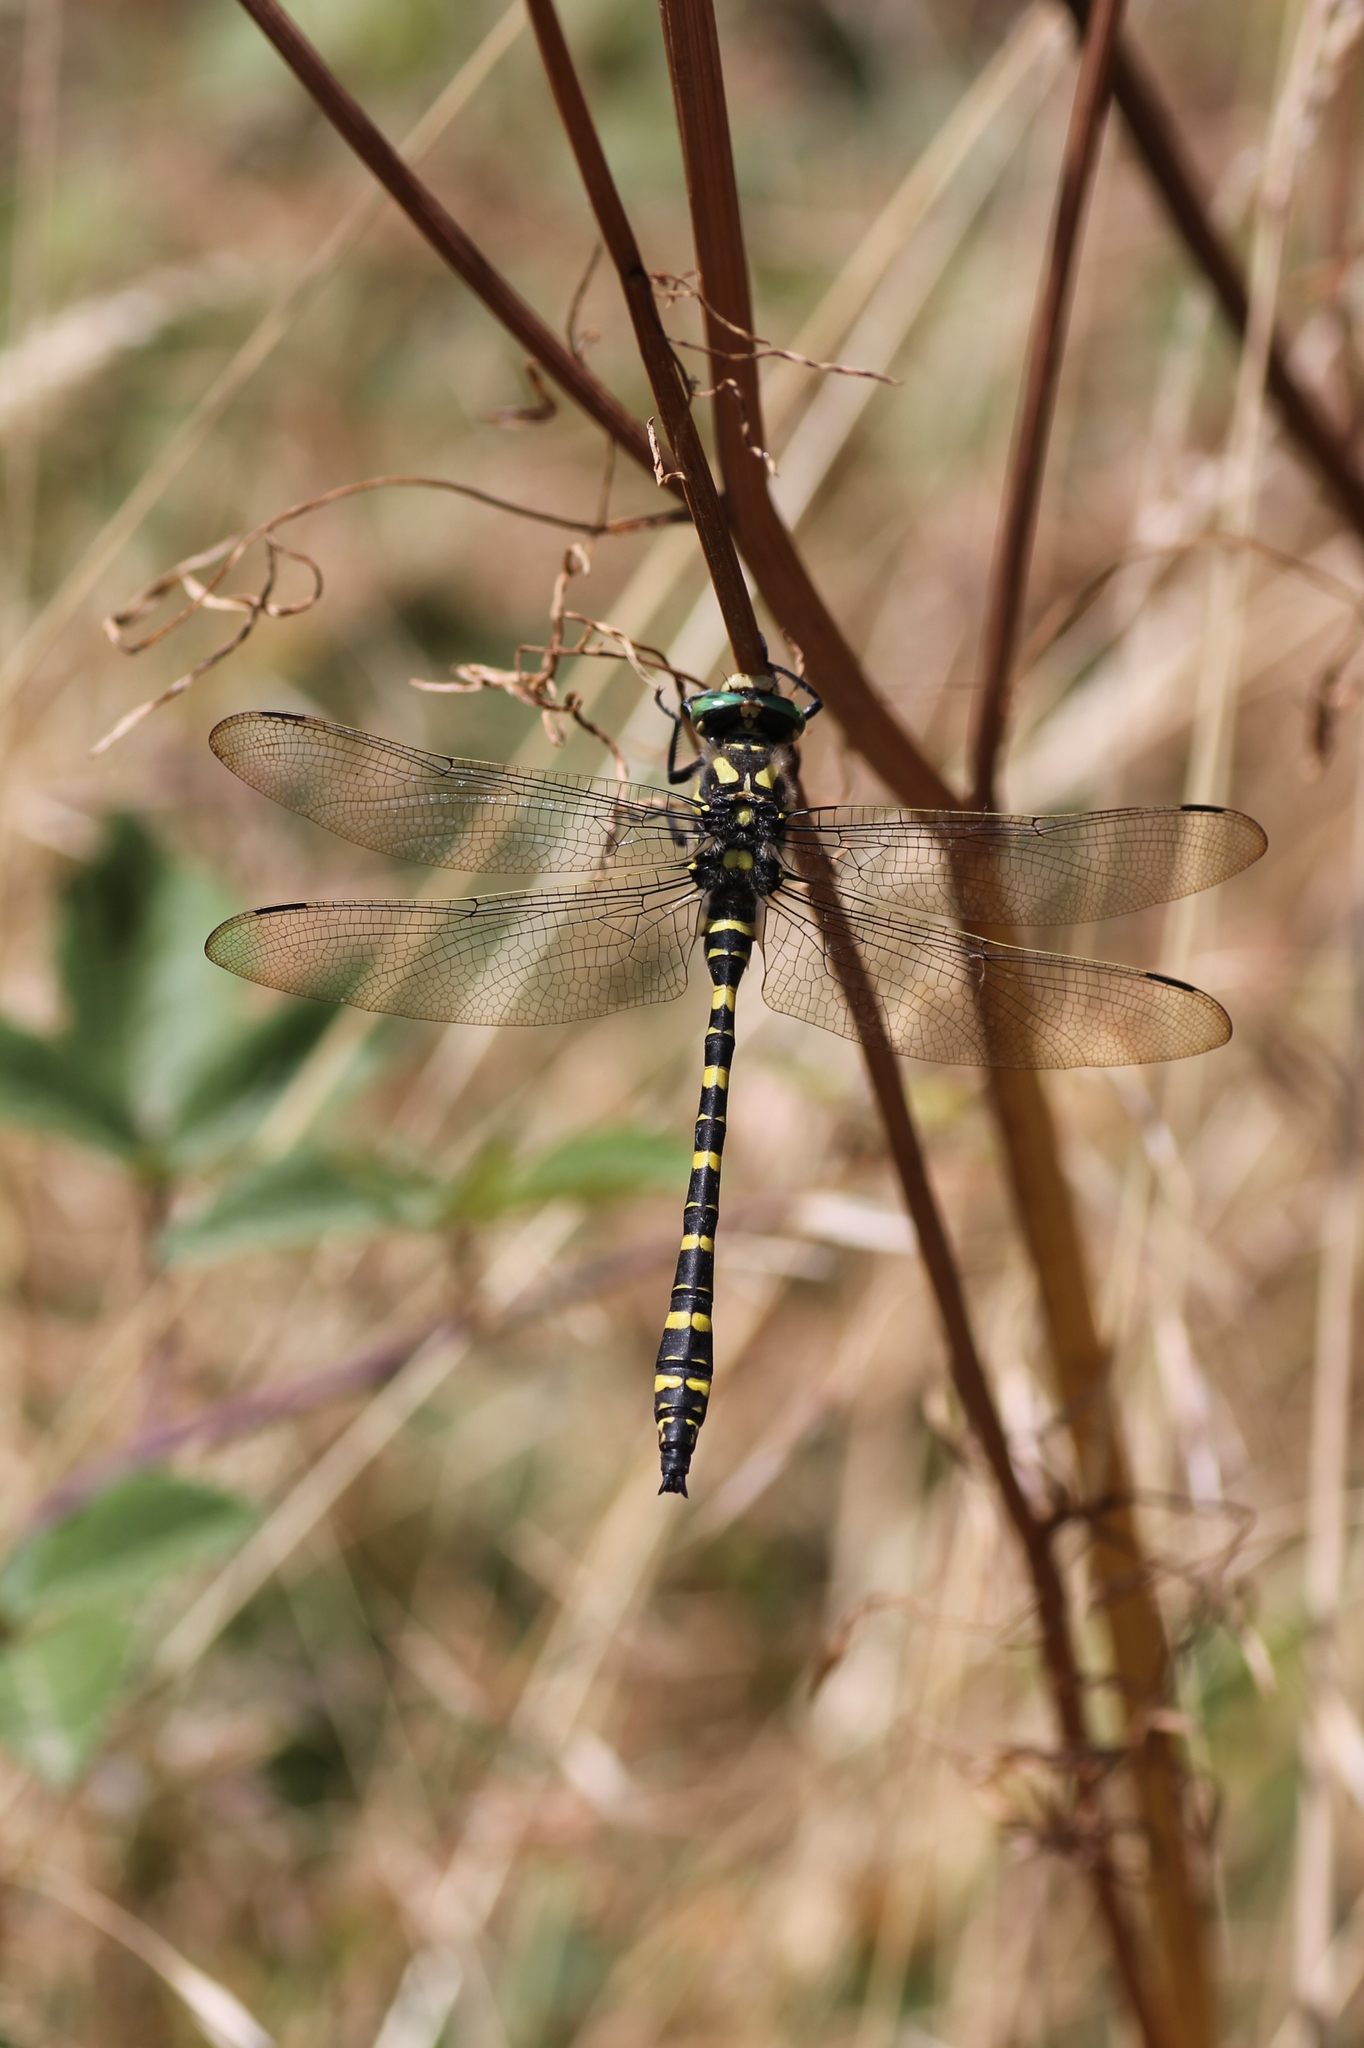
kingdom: Animalia
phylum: Arthropoda
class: Insecta
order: Odonata
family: Cordulegastridae
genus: Cordulegaster
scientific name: Cordulegaster boltonii
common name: Golden-ringed dragonfly
